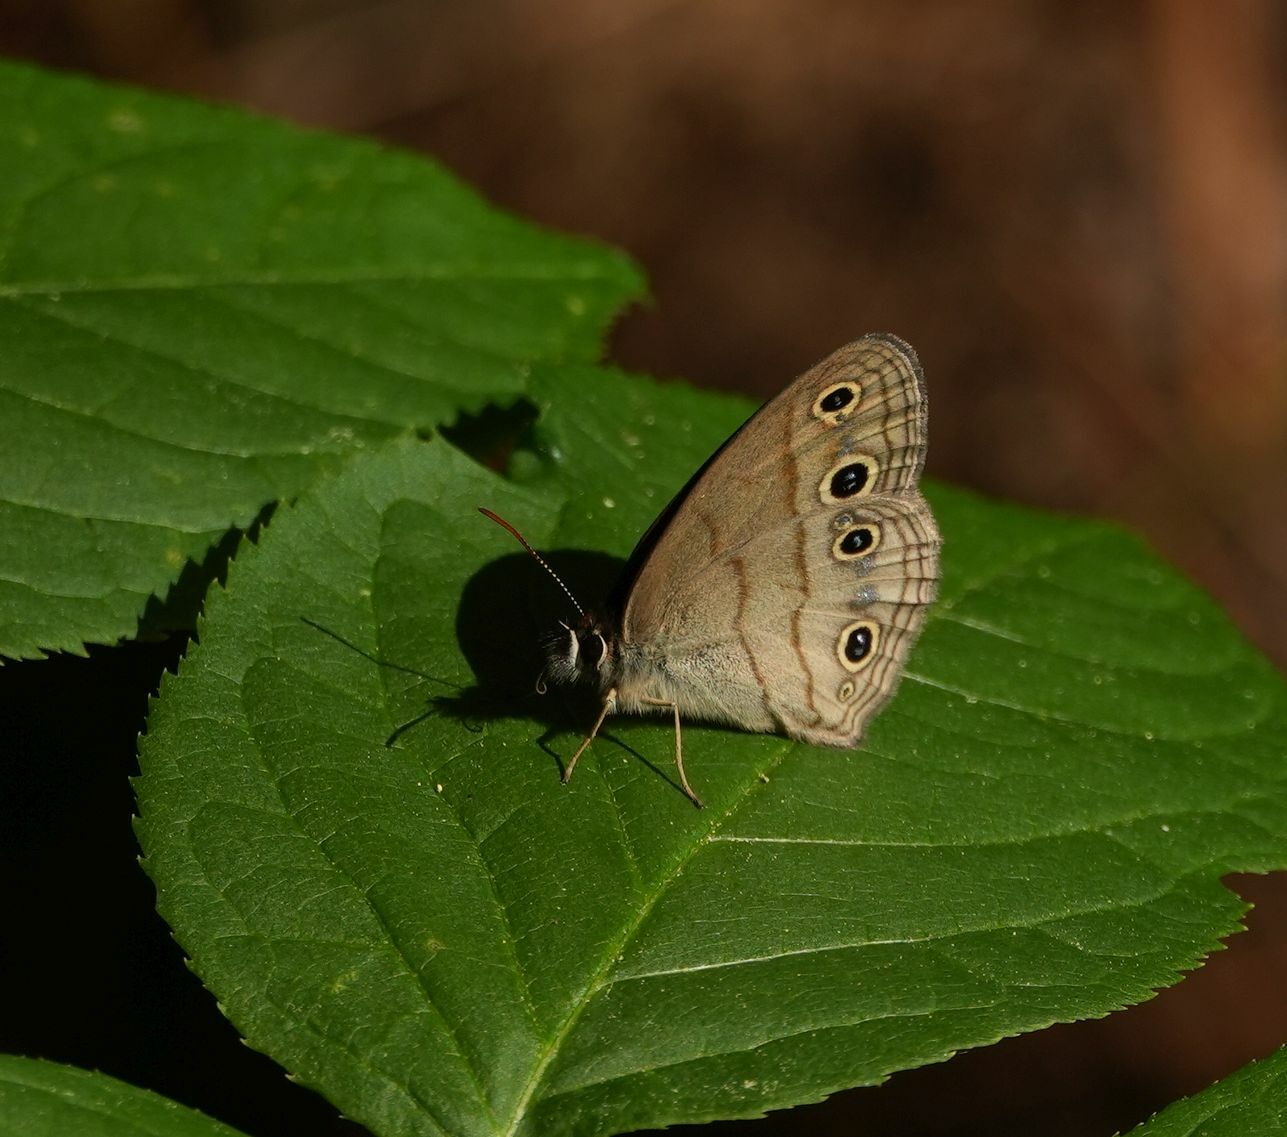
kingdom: Animalia
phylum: Arthropoda
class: Insecta
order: Lepidoptera
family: Nymphalidae
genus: Euptychia
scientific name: Euptychia cymela
